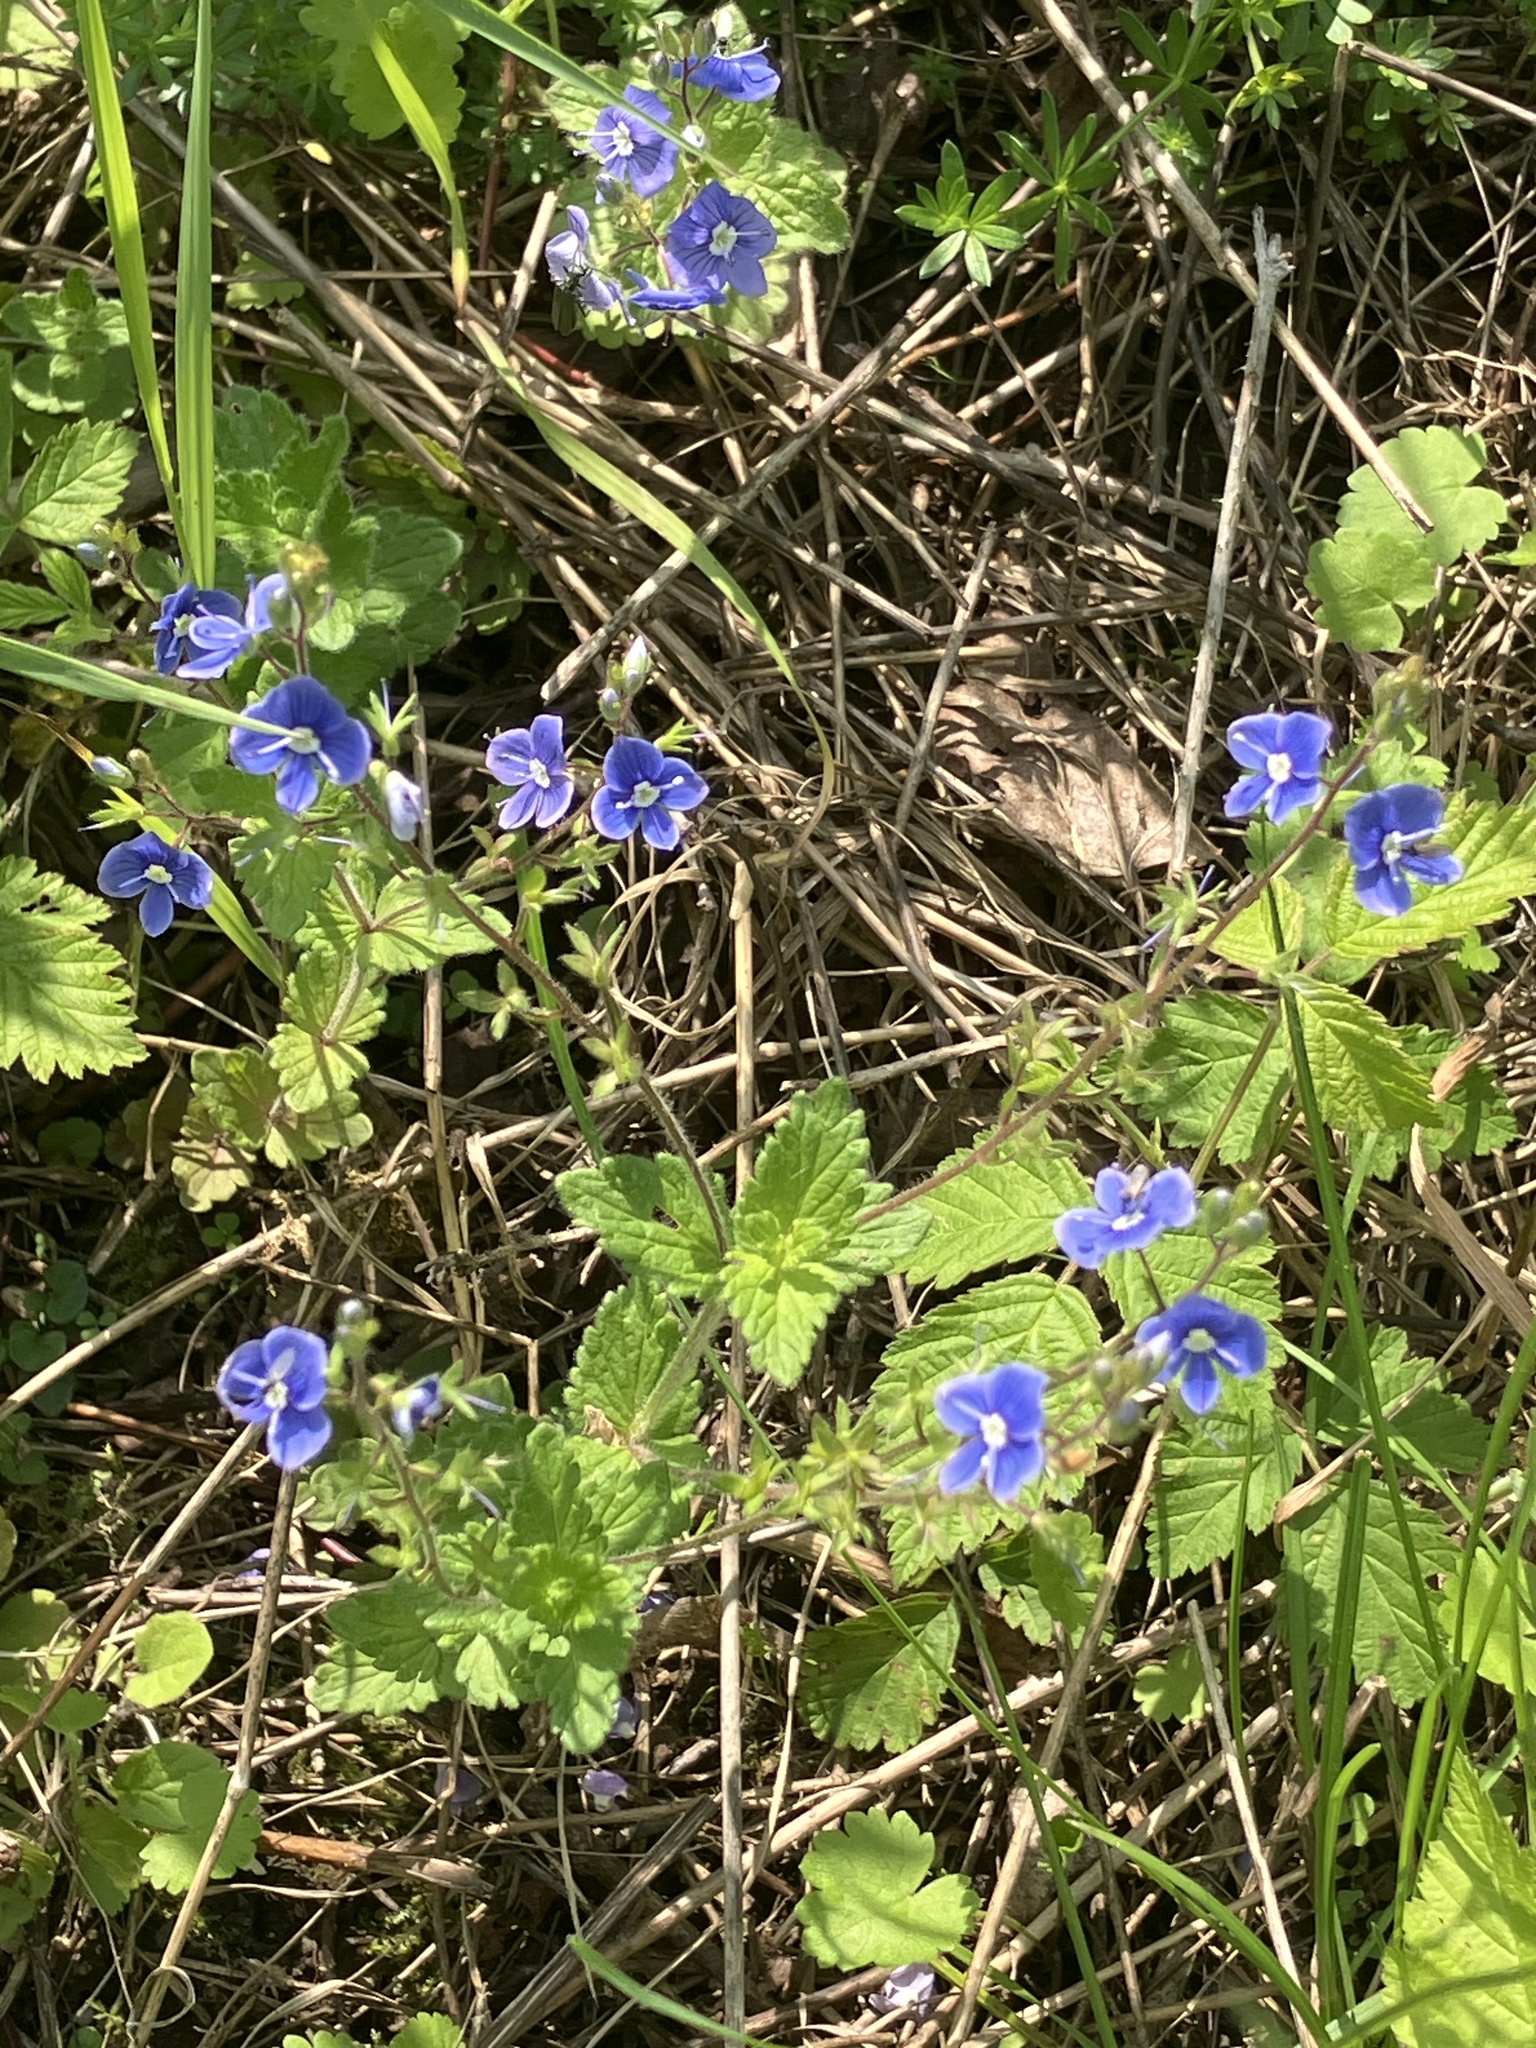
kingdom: Plantae
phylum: Tracheophyta
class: Magnoliopsida
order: Lamiales
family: Plantaginaceae
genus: Veronica
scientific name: Veronica chamaedrys
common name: Germander speedwell
